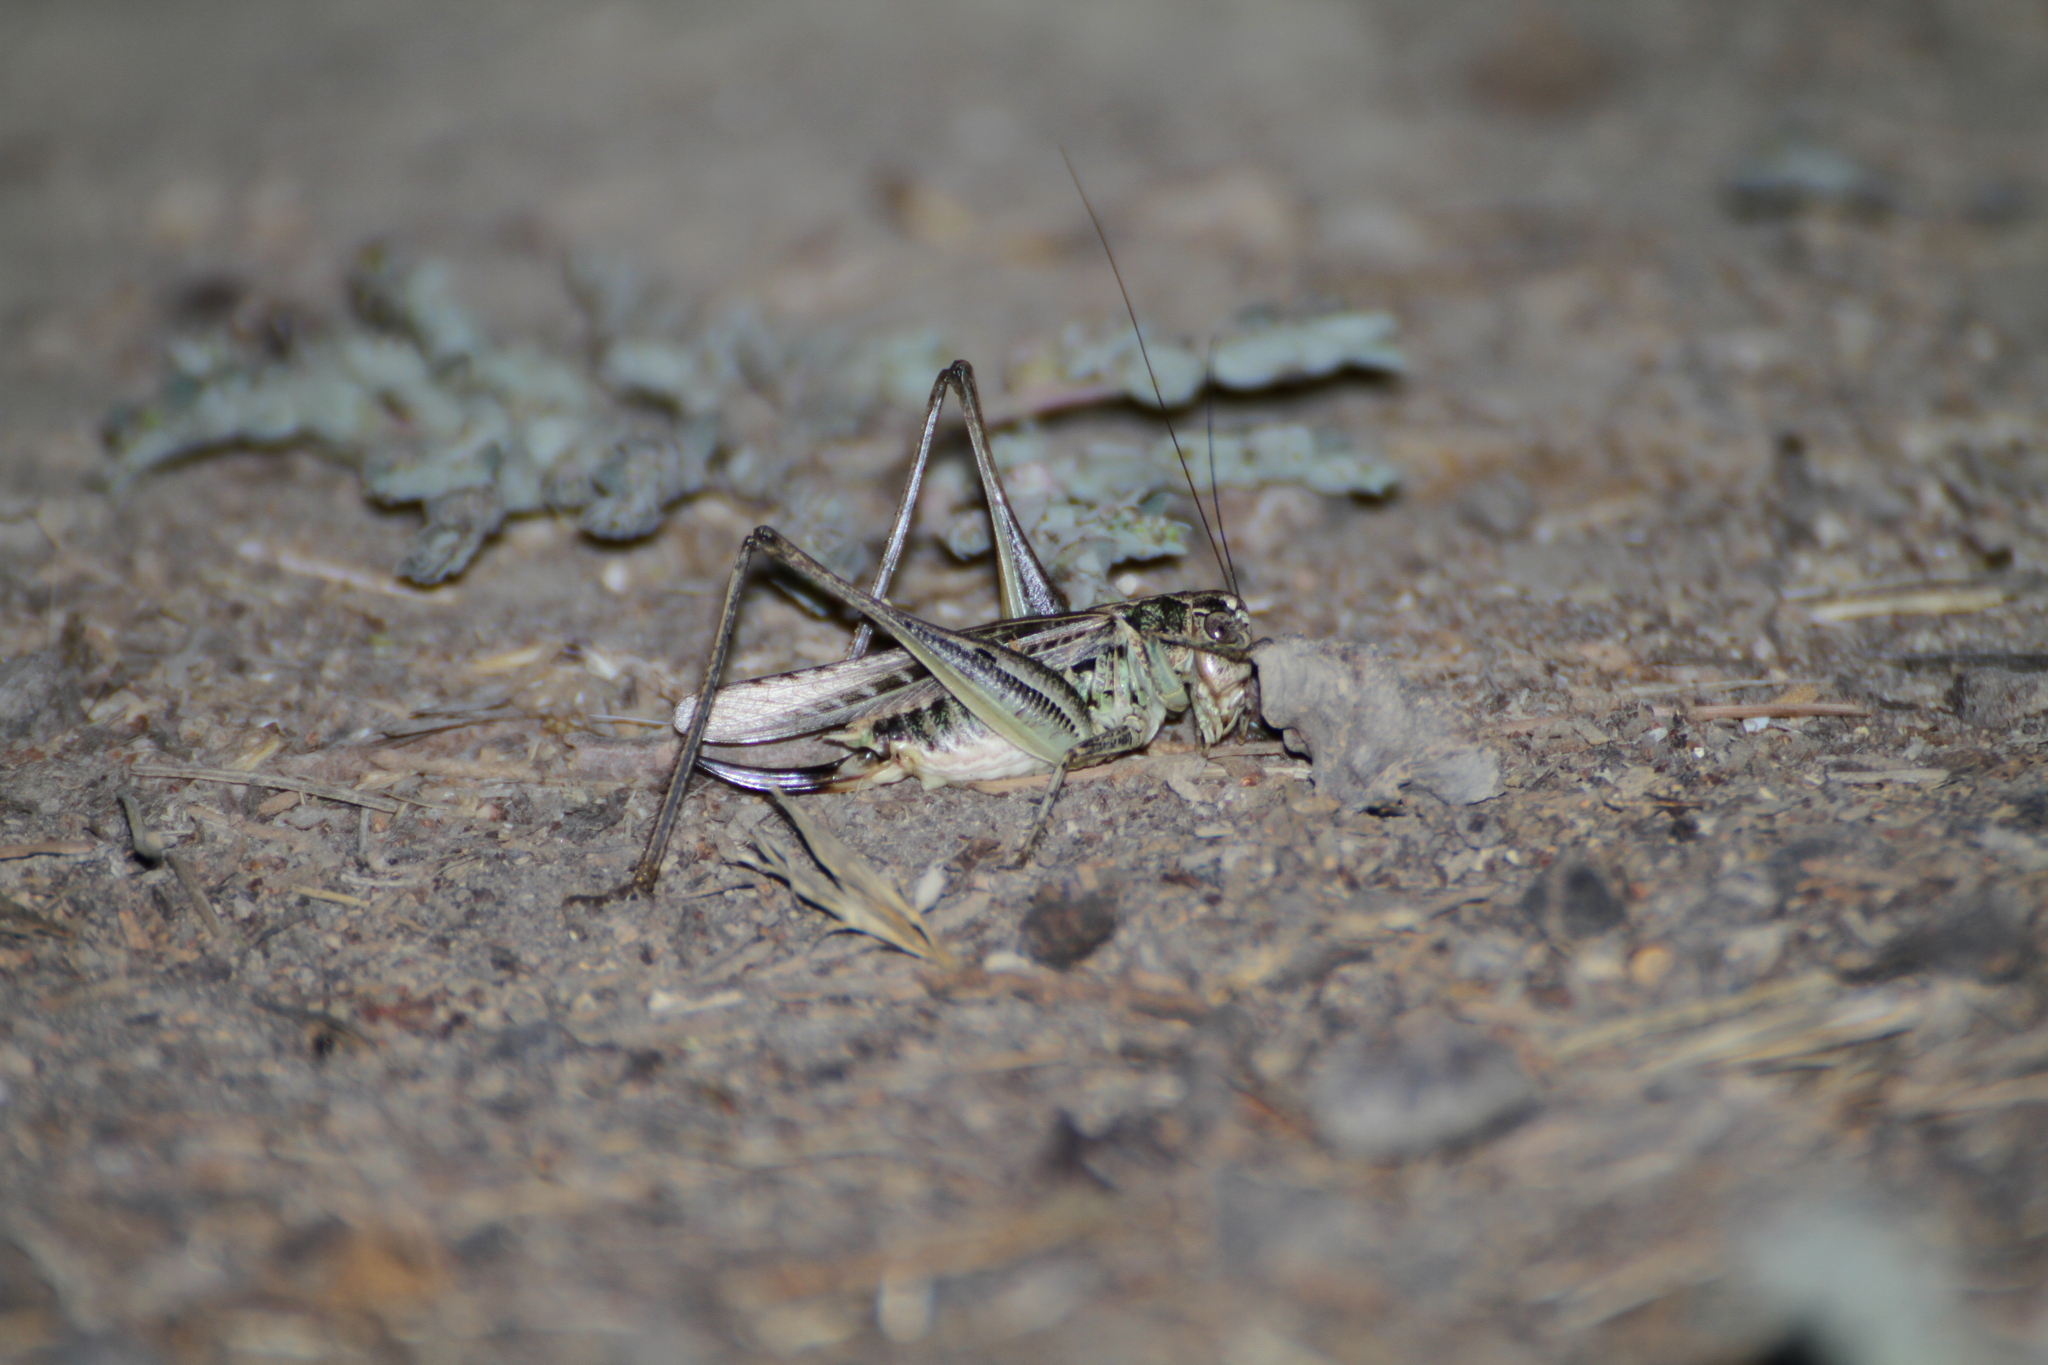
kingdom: Animalia
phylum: Arthropoda
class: Insecta
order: Orthoptera
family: Tettigoniidae
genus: Platycleis
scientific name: Platycleis affinis
